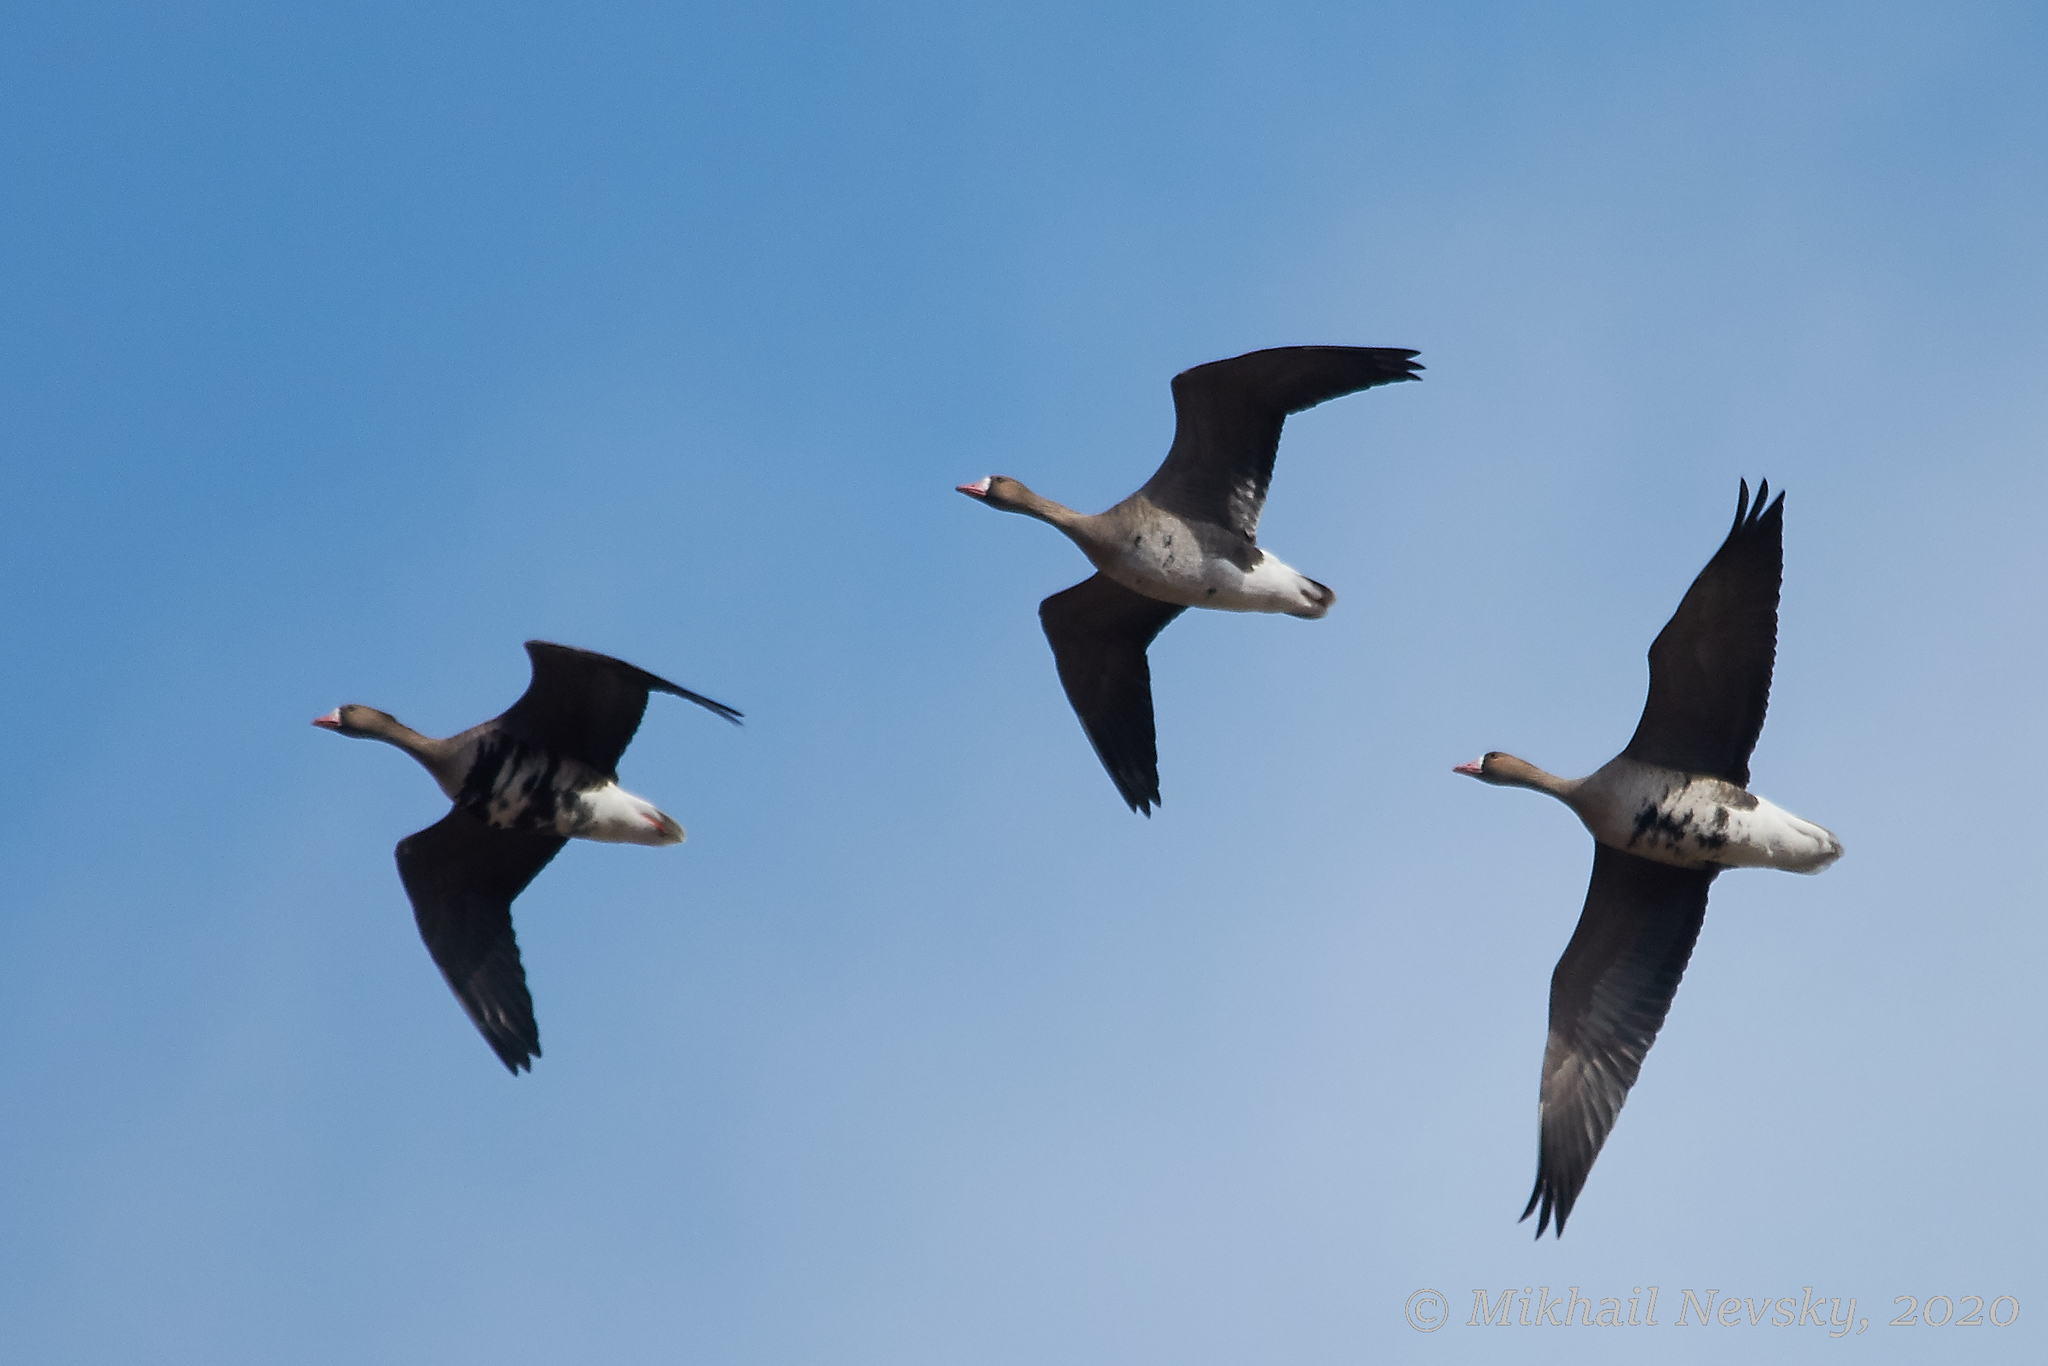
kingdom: Animalia
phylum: Chordata
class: Aves
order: Anseriformes
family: Anatidae
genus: Anser
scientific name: Anser albifrons
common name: Greater white-fronted goose
